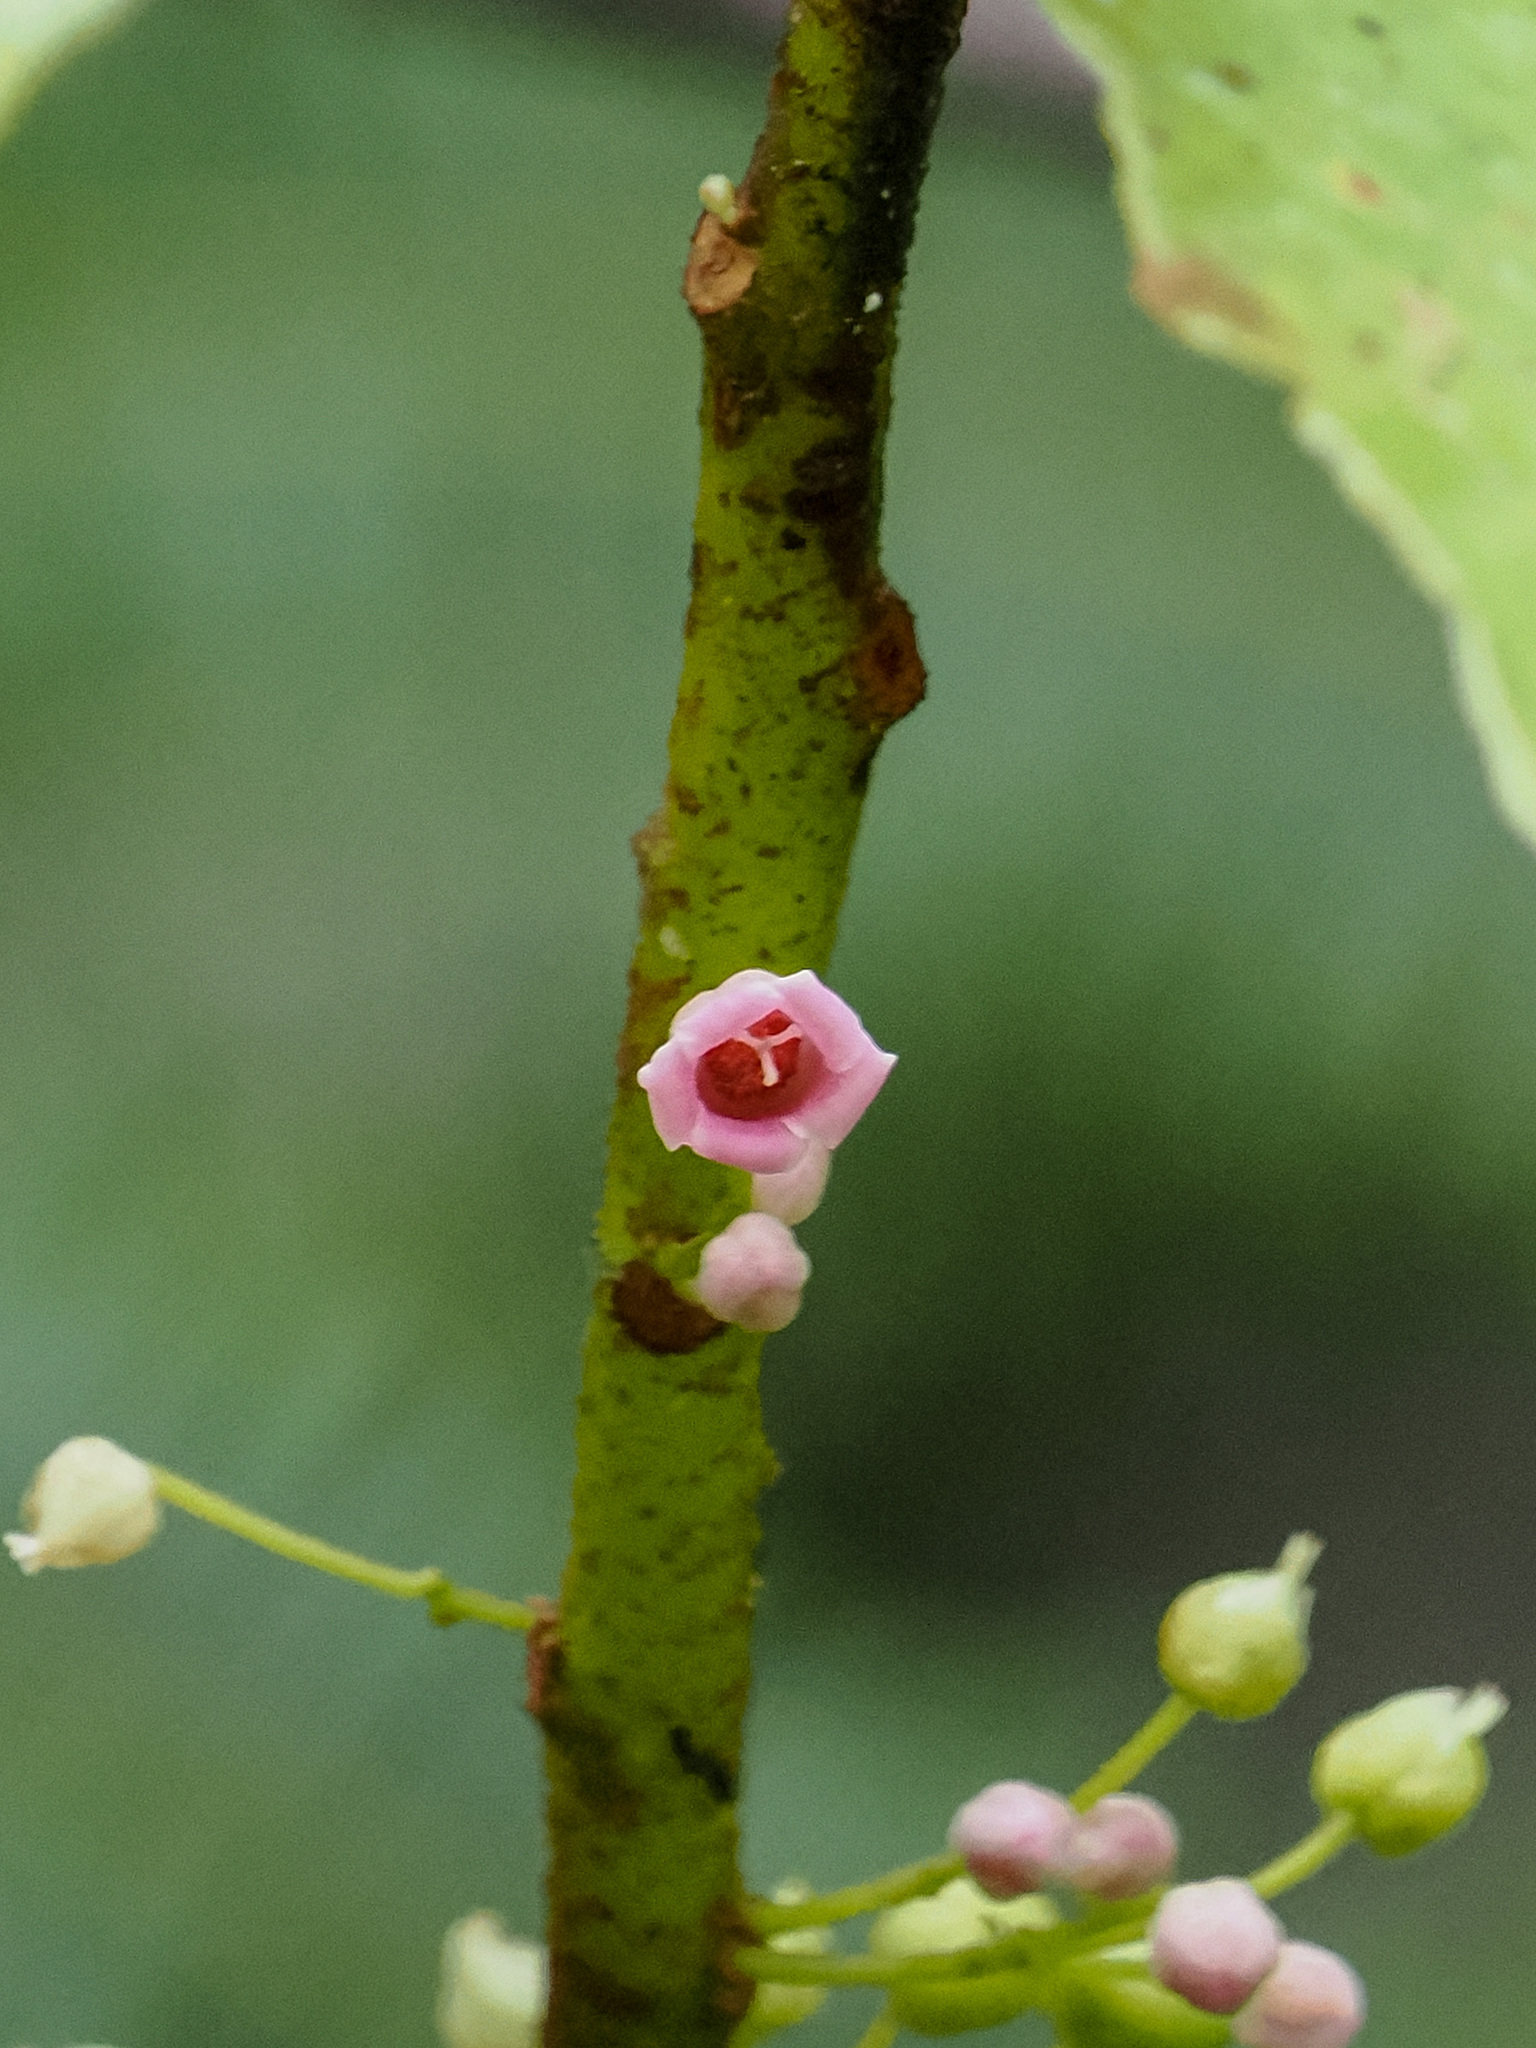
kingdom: Plantae
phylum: Tracheophyta
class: Magnoliopsida
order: Ericales
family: Actinidiaceae
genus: Saurauia
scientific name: Saurauia tristyla
